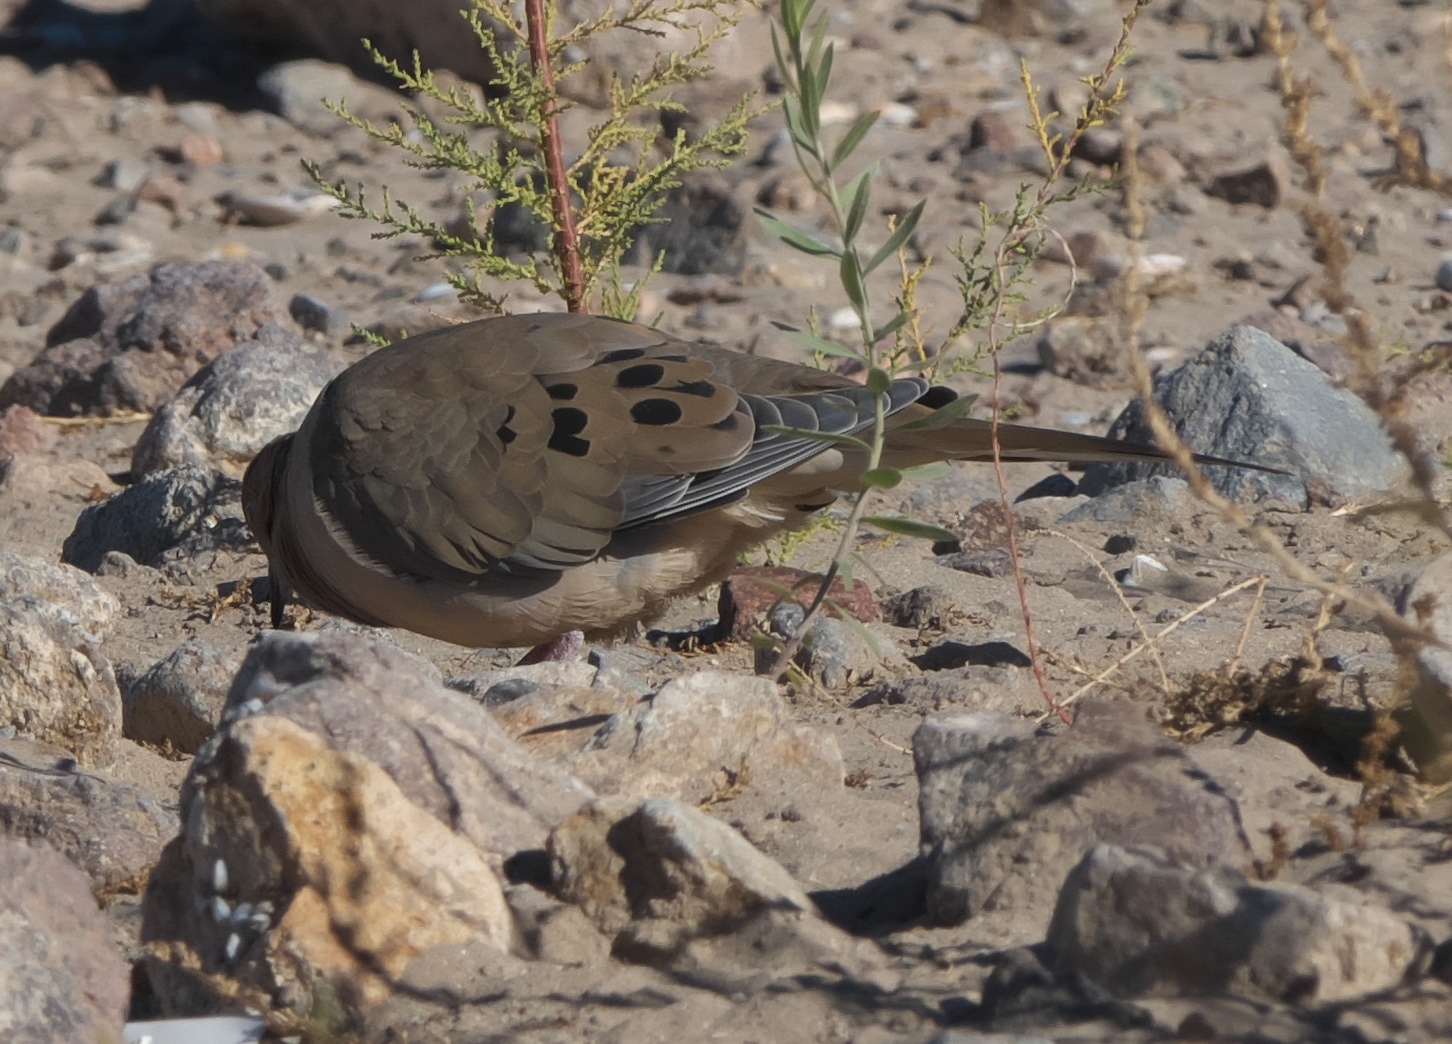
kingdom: Animalia
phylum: Chordata
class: Aves
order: Columbiformes
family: Columbidae
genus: Zenaida
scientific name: Zenaida macroura
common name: Mourning dove
